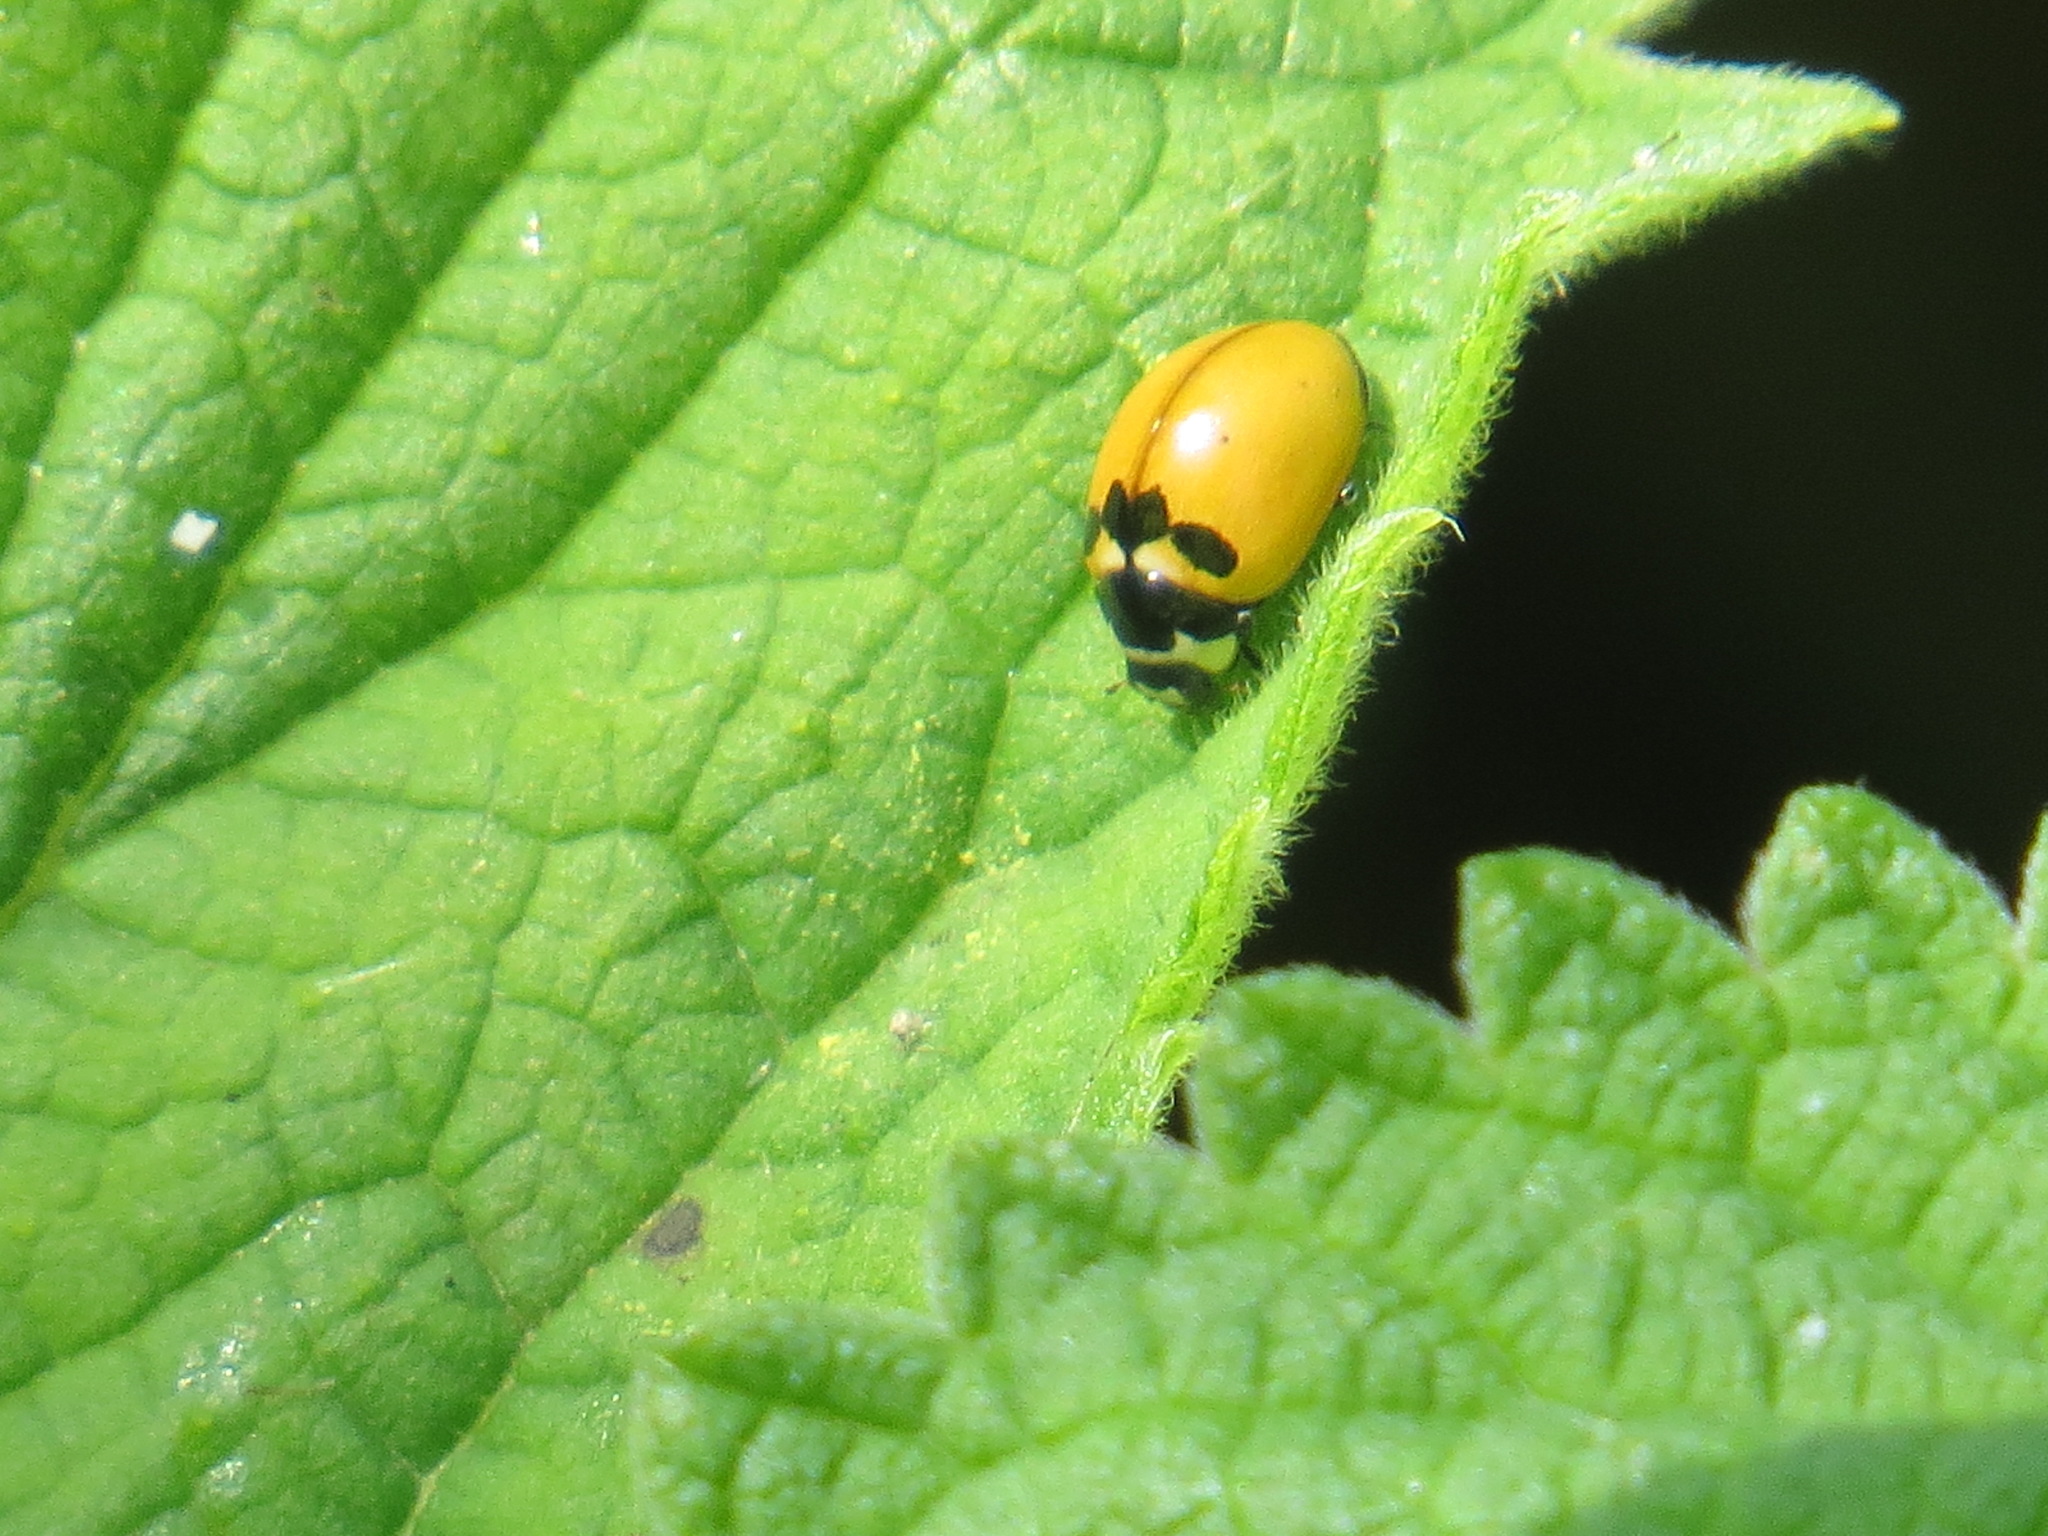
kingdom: Animalia
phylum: Arthropoda
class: Insecta
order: Coleoptera
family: Coccinellidae
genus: Coccinella
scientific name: Coccinella trifasciata
